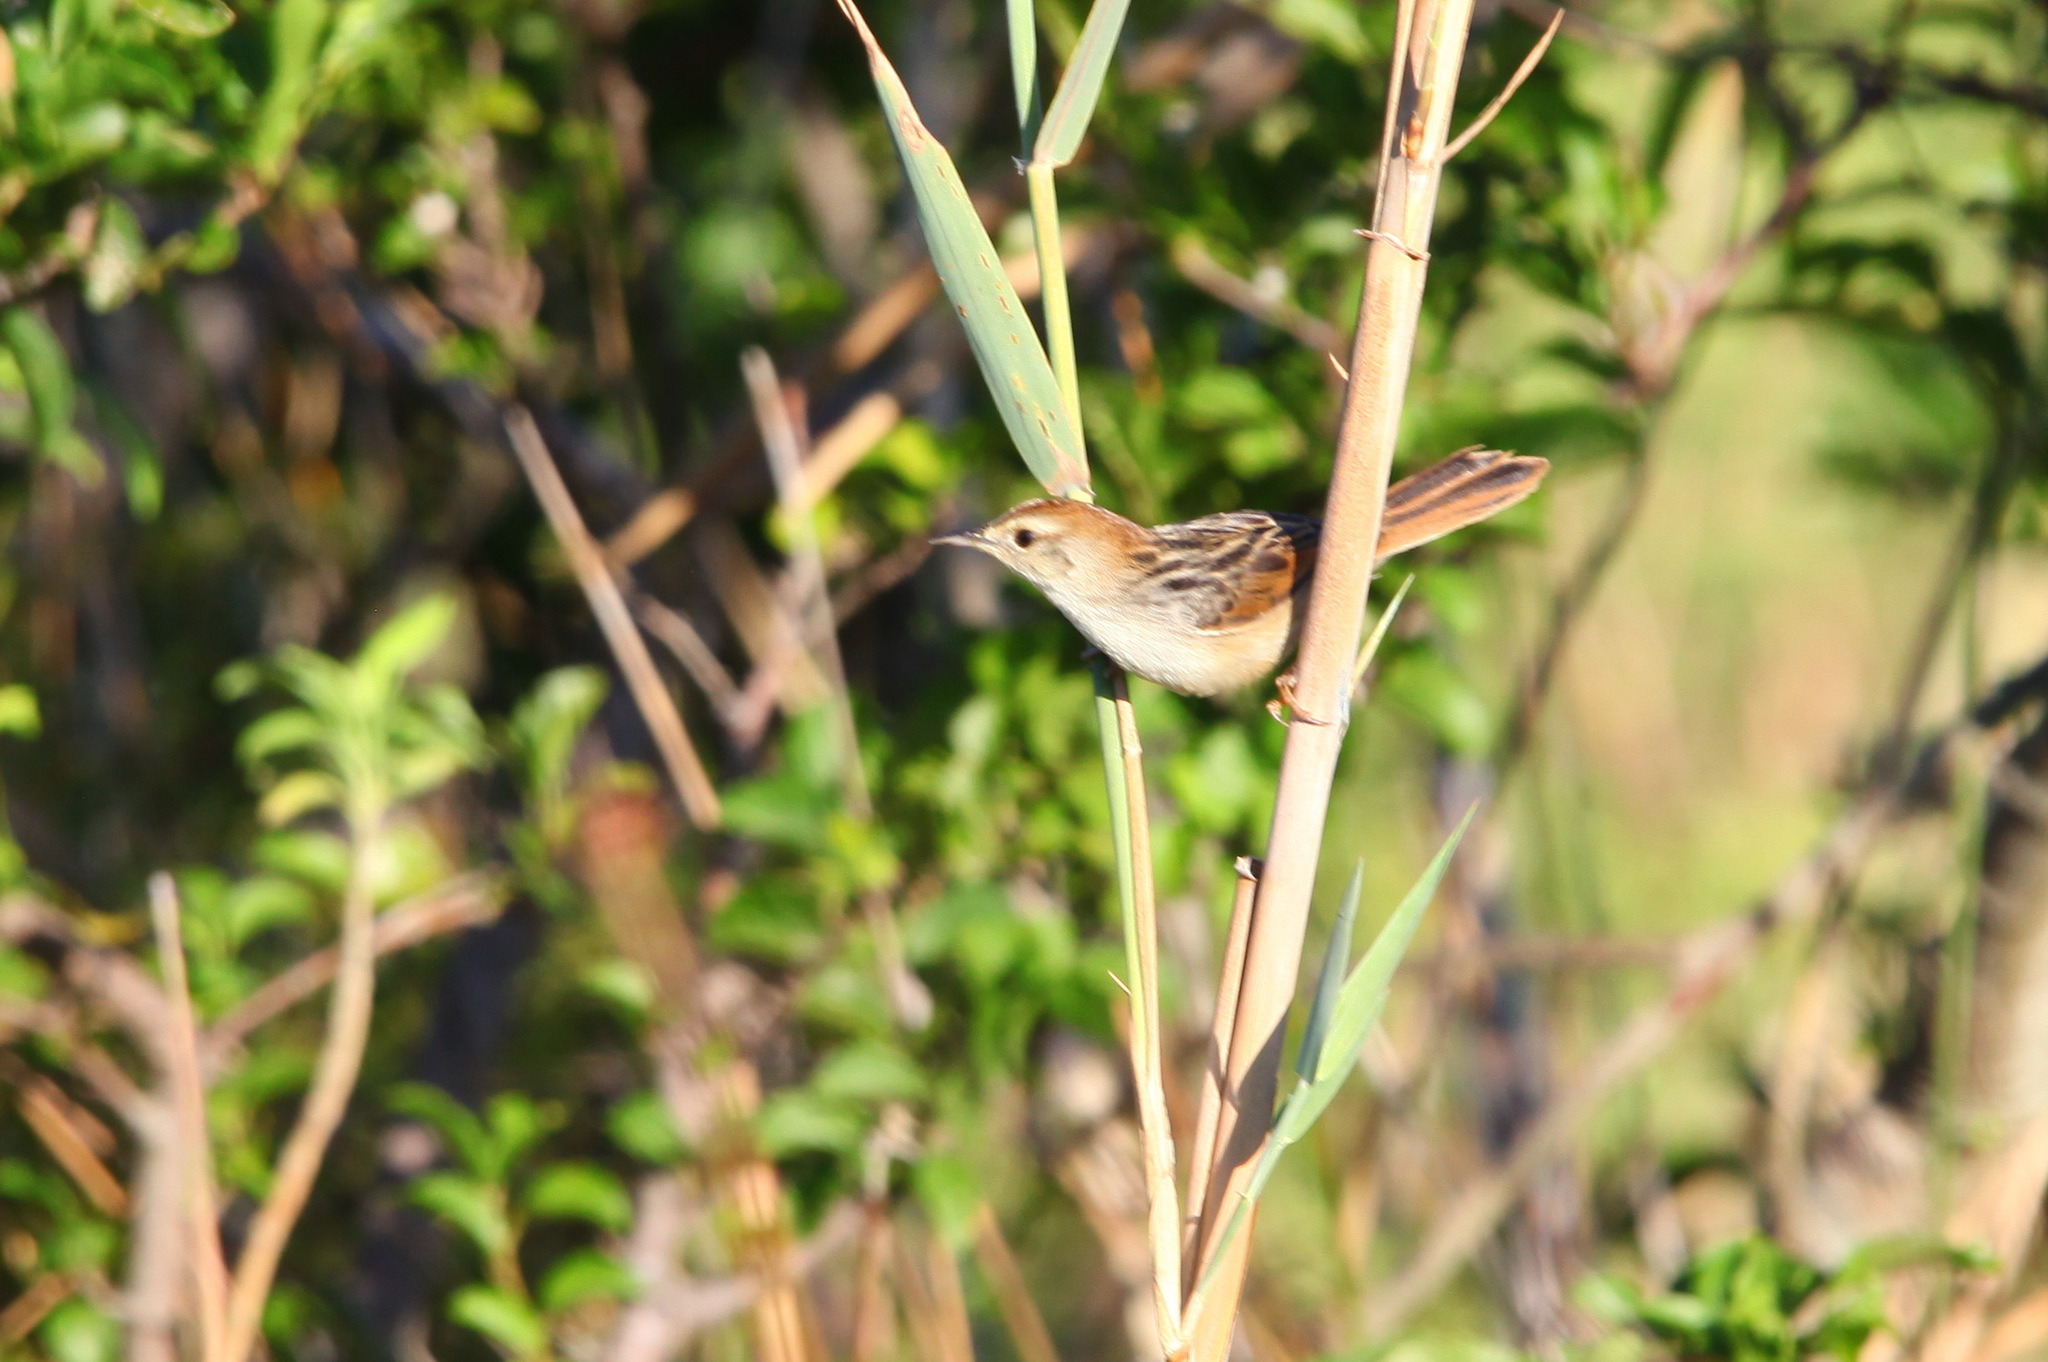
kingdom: Animalia
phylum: Chordata
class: Aves
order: Passeriformes
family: Cisticolidae
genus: Cisticola
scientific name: Cisticola tinniens
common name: Levaillant's cisticola
